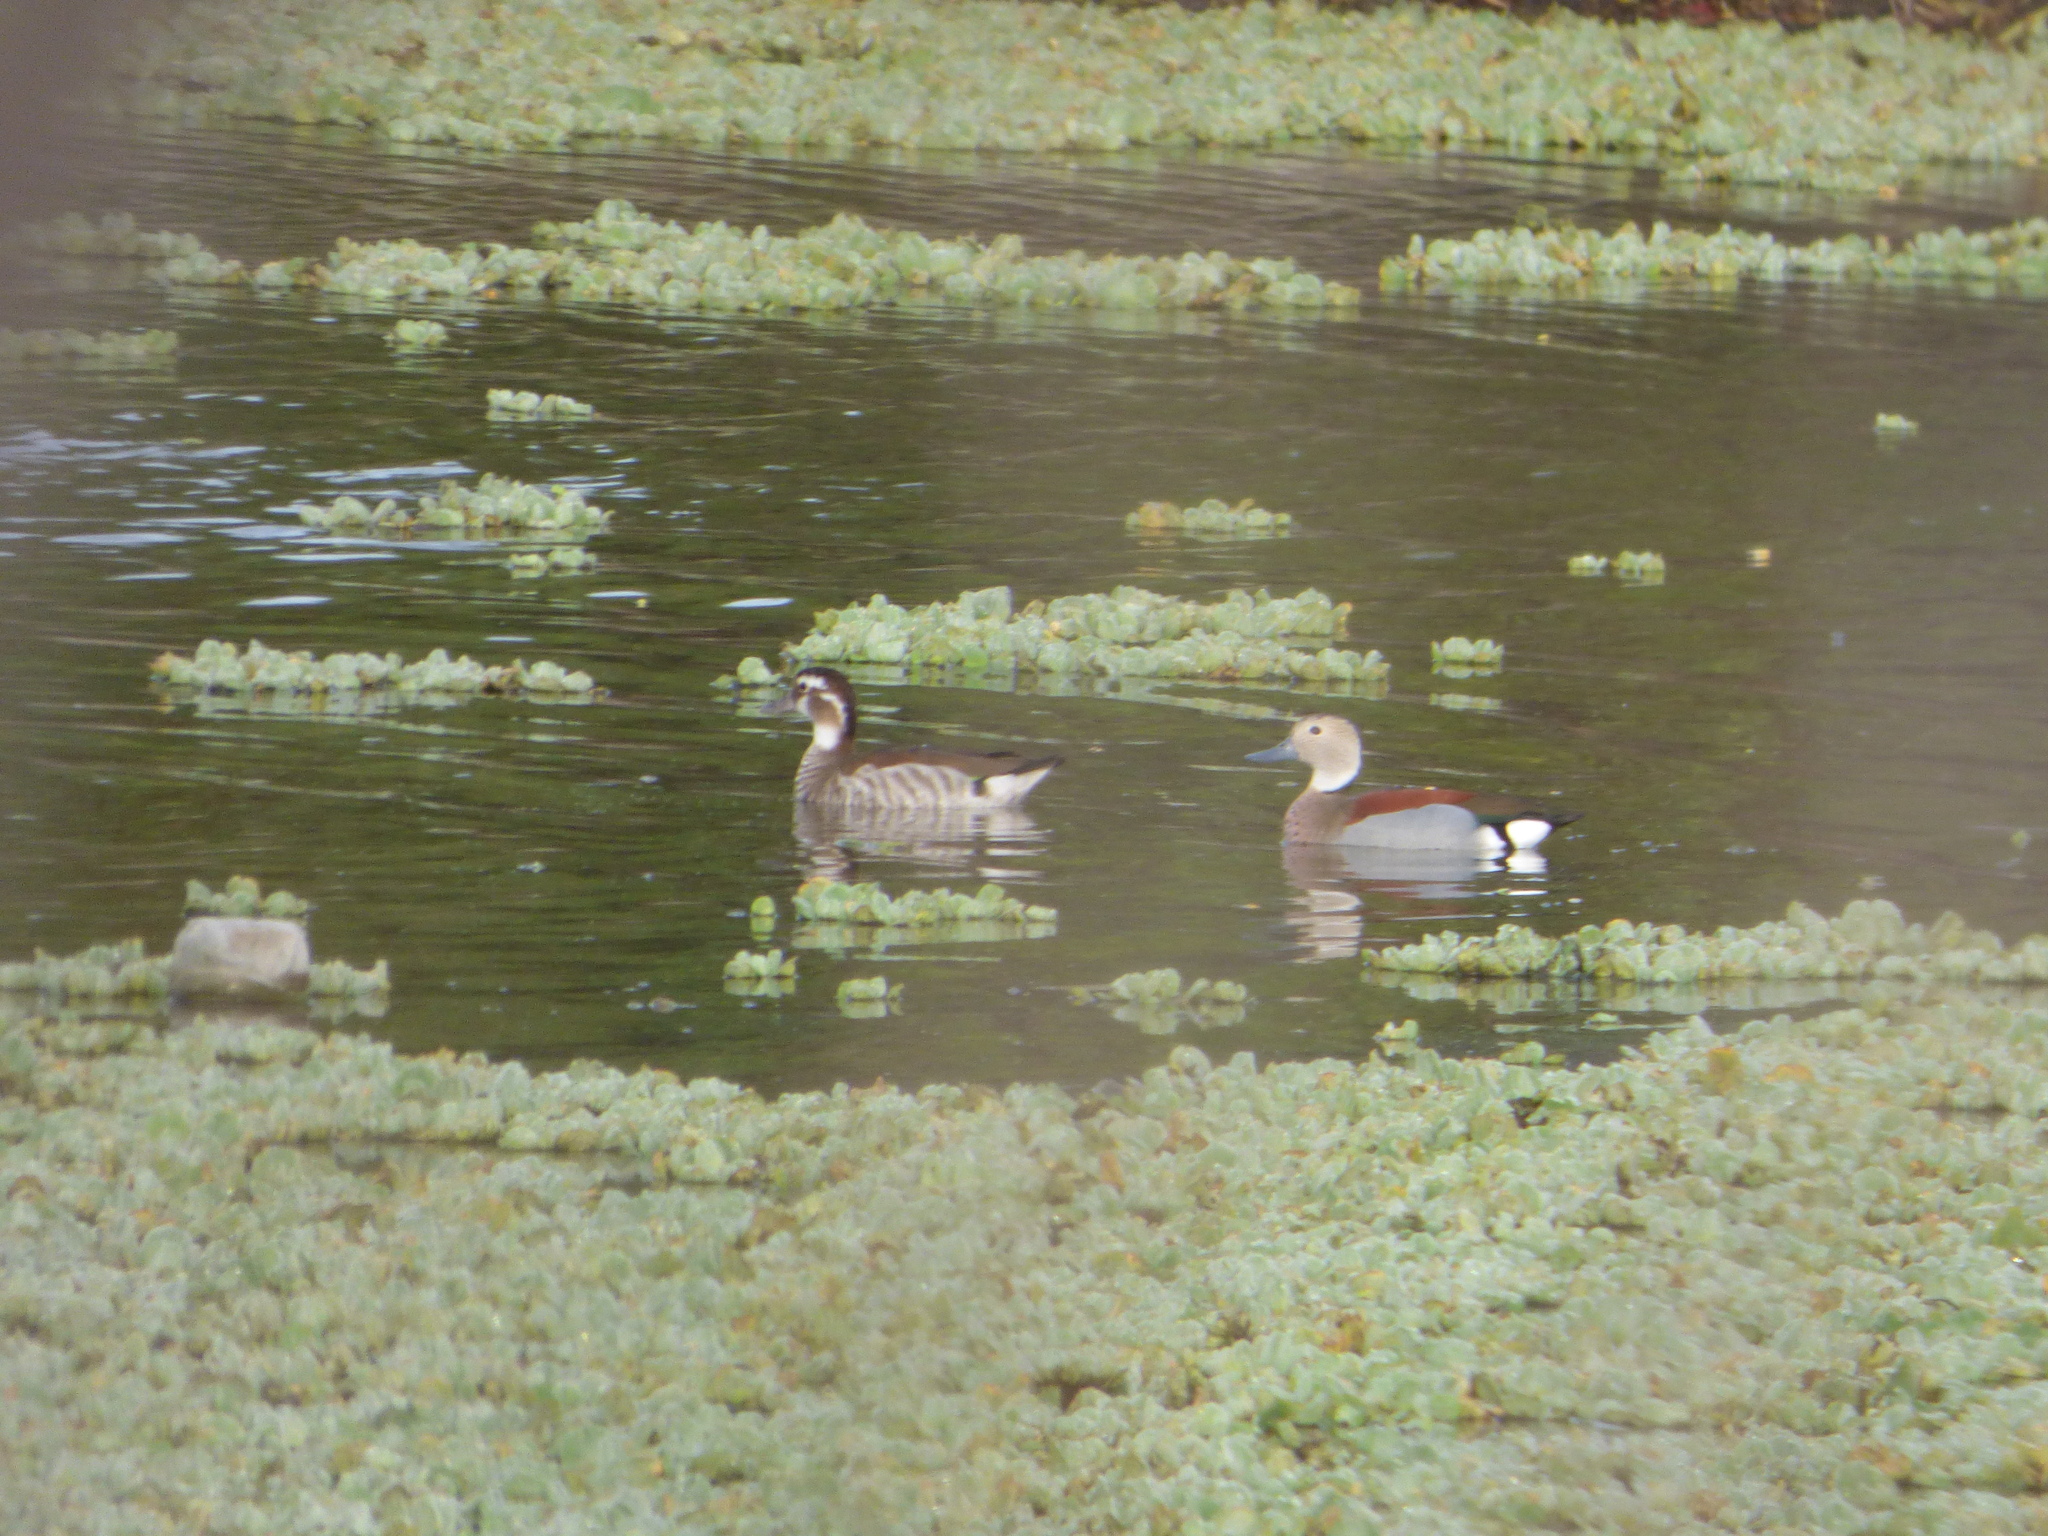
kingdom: Animalia
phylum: Chordata
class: Aves
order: Anseriformes
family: Anatidae
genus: Callonetta
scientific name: Callonetta leucophrys
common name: Ringed teal
